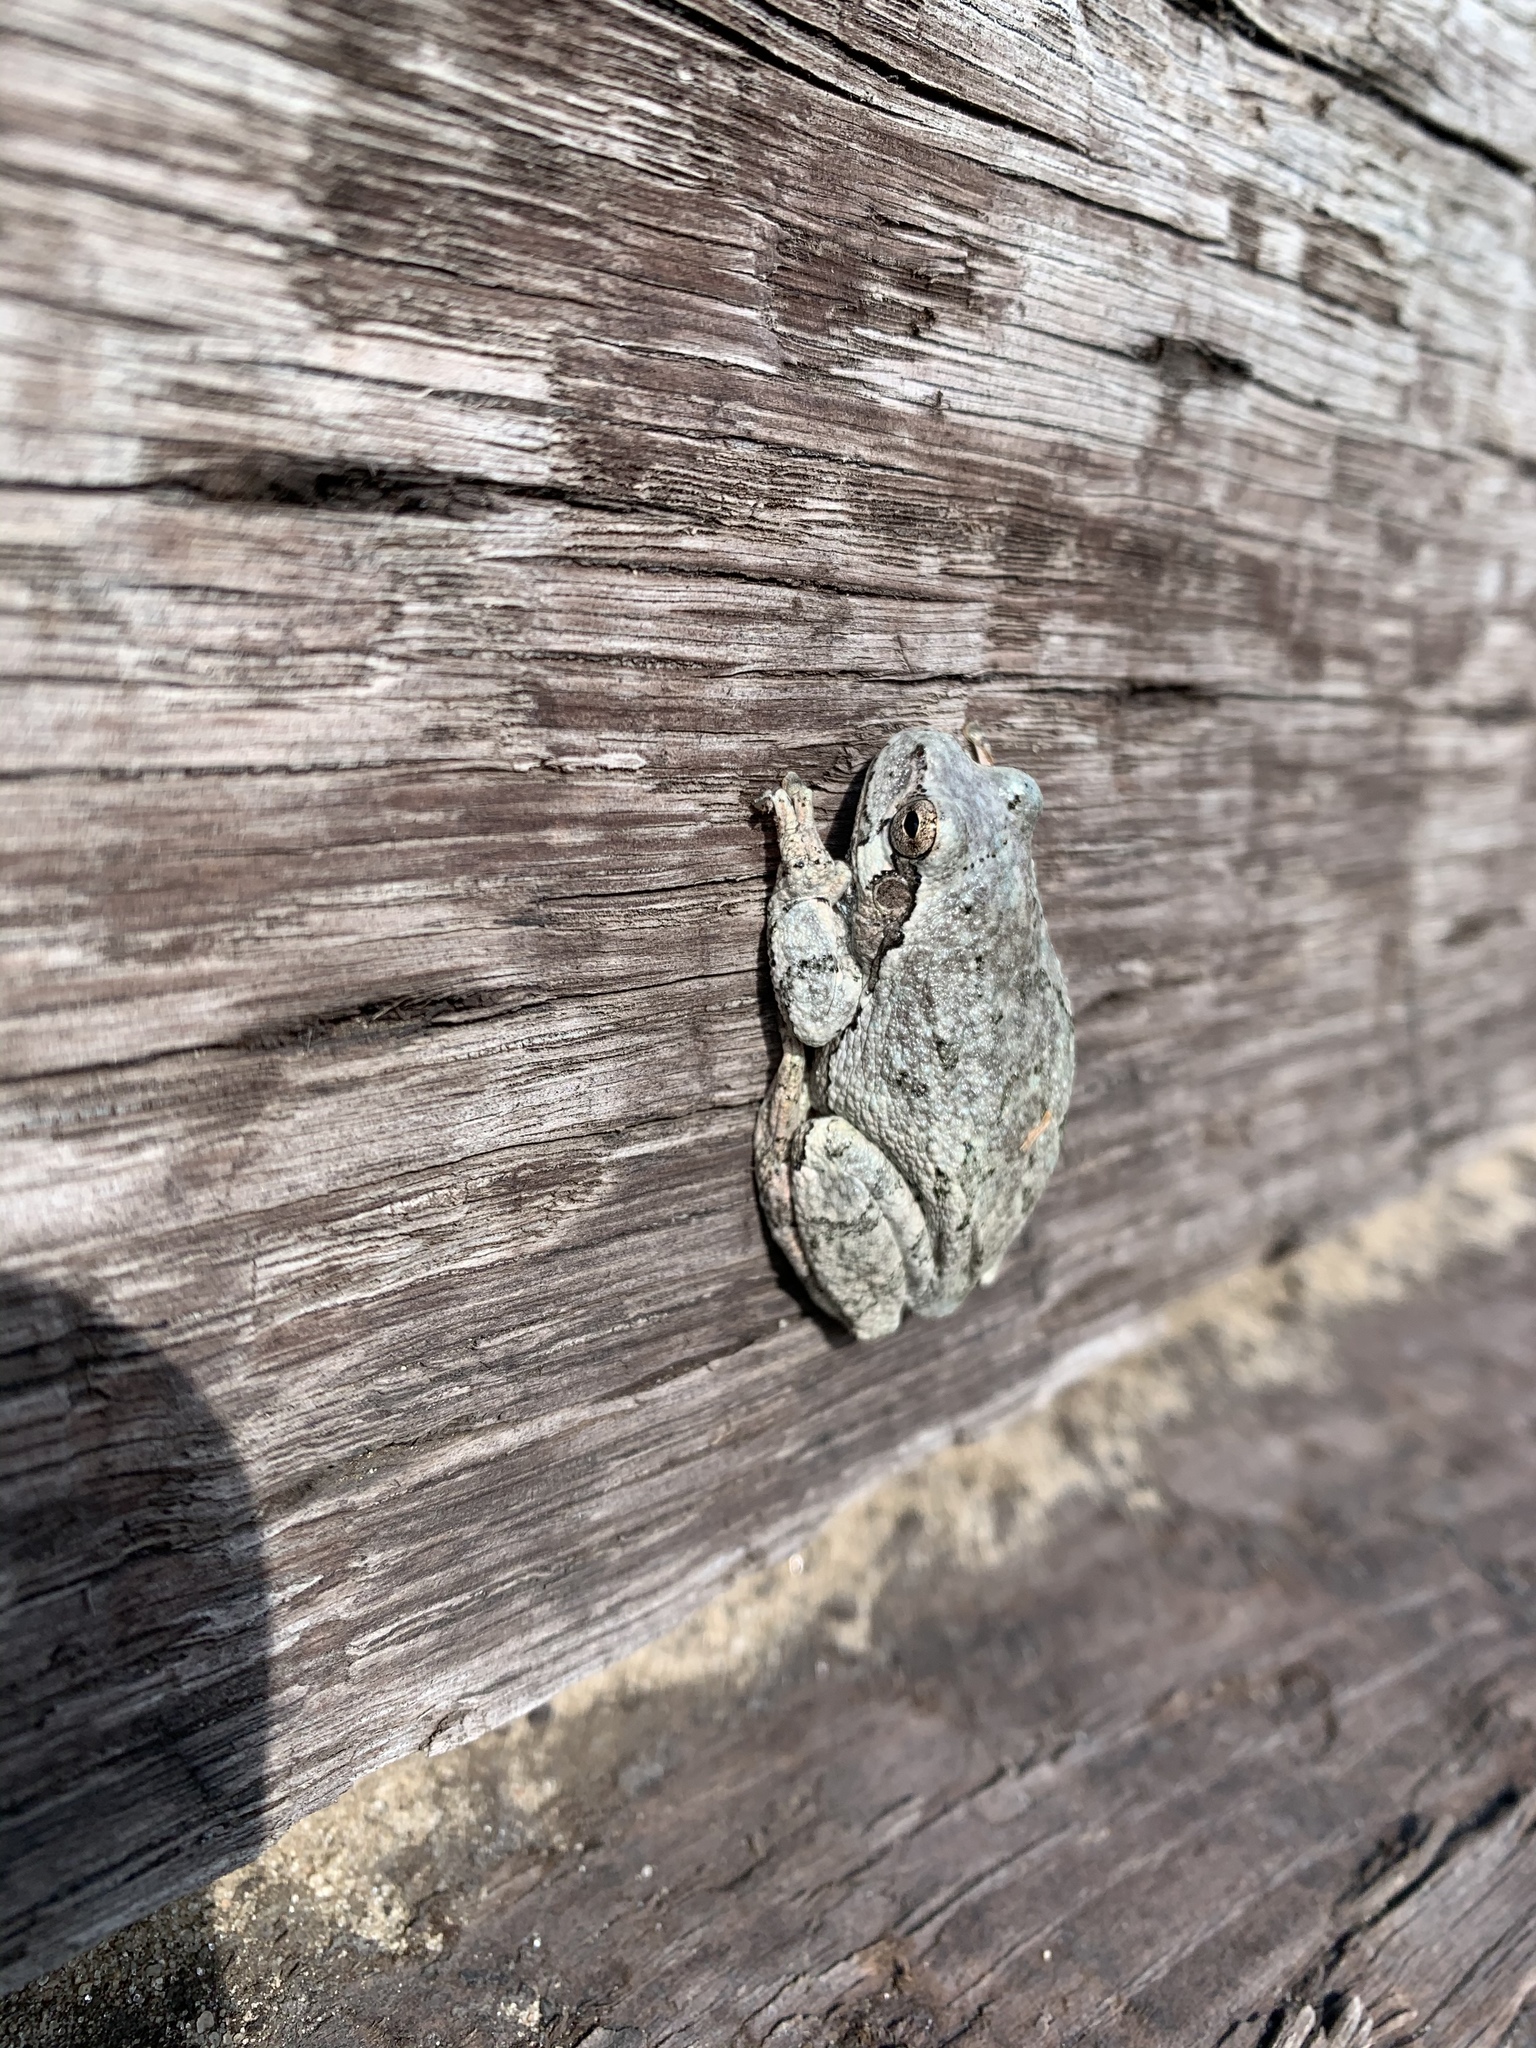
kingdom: Animalia
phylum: Chordata
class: Amphibia
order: Anura
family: Hylidae
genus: Dryophytes
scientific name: Dryophytes chrysoscelis
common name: Cope's gray treefrog
